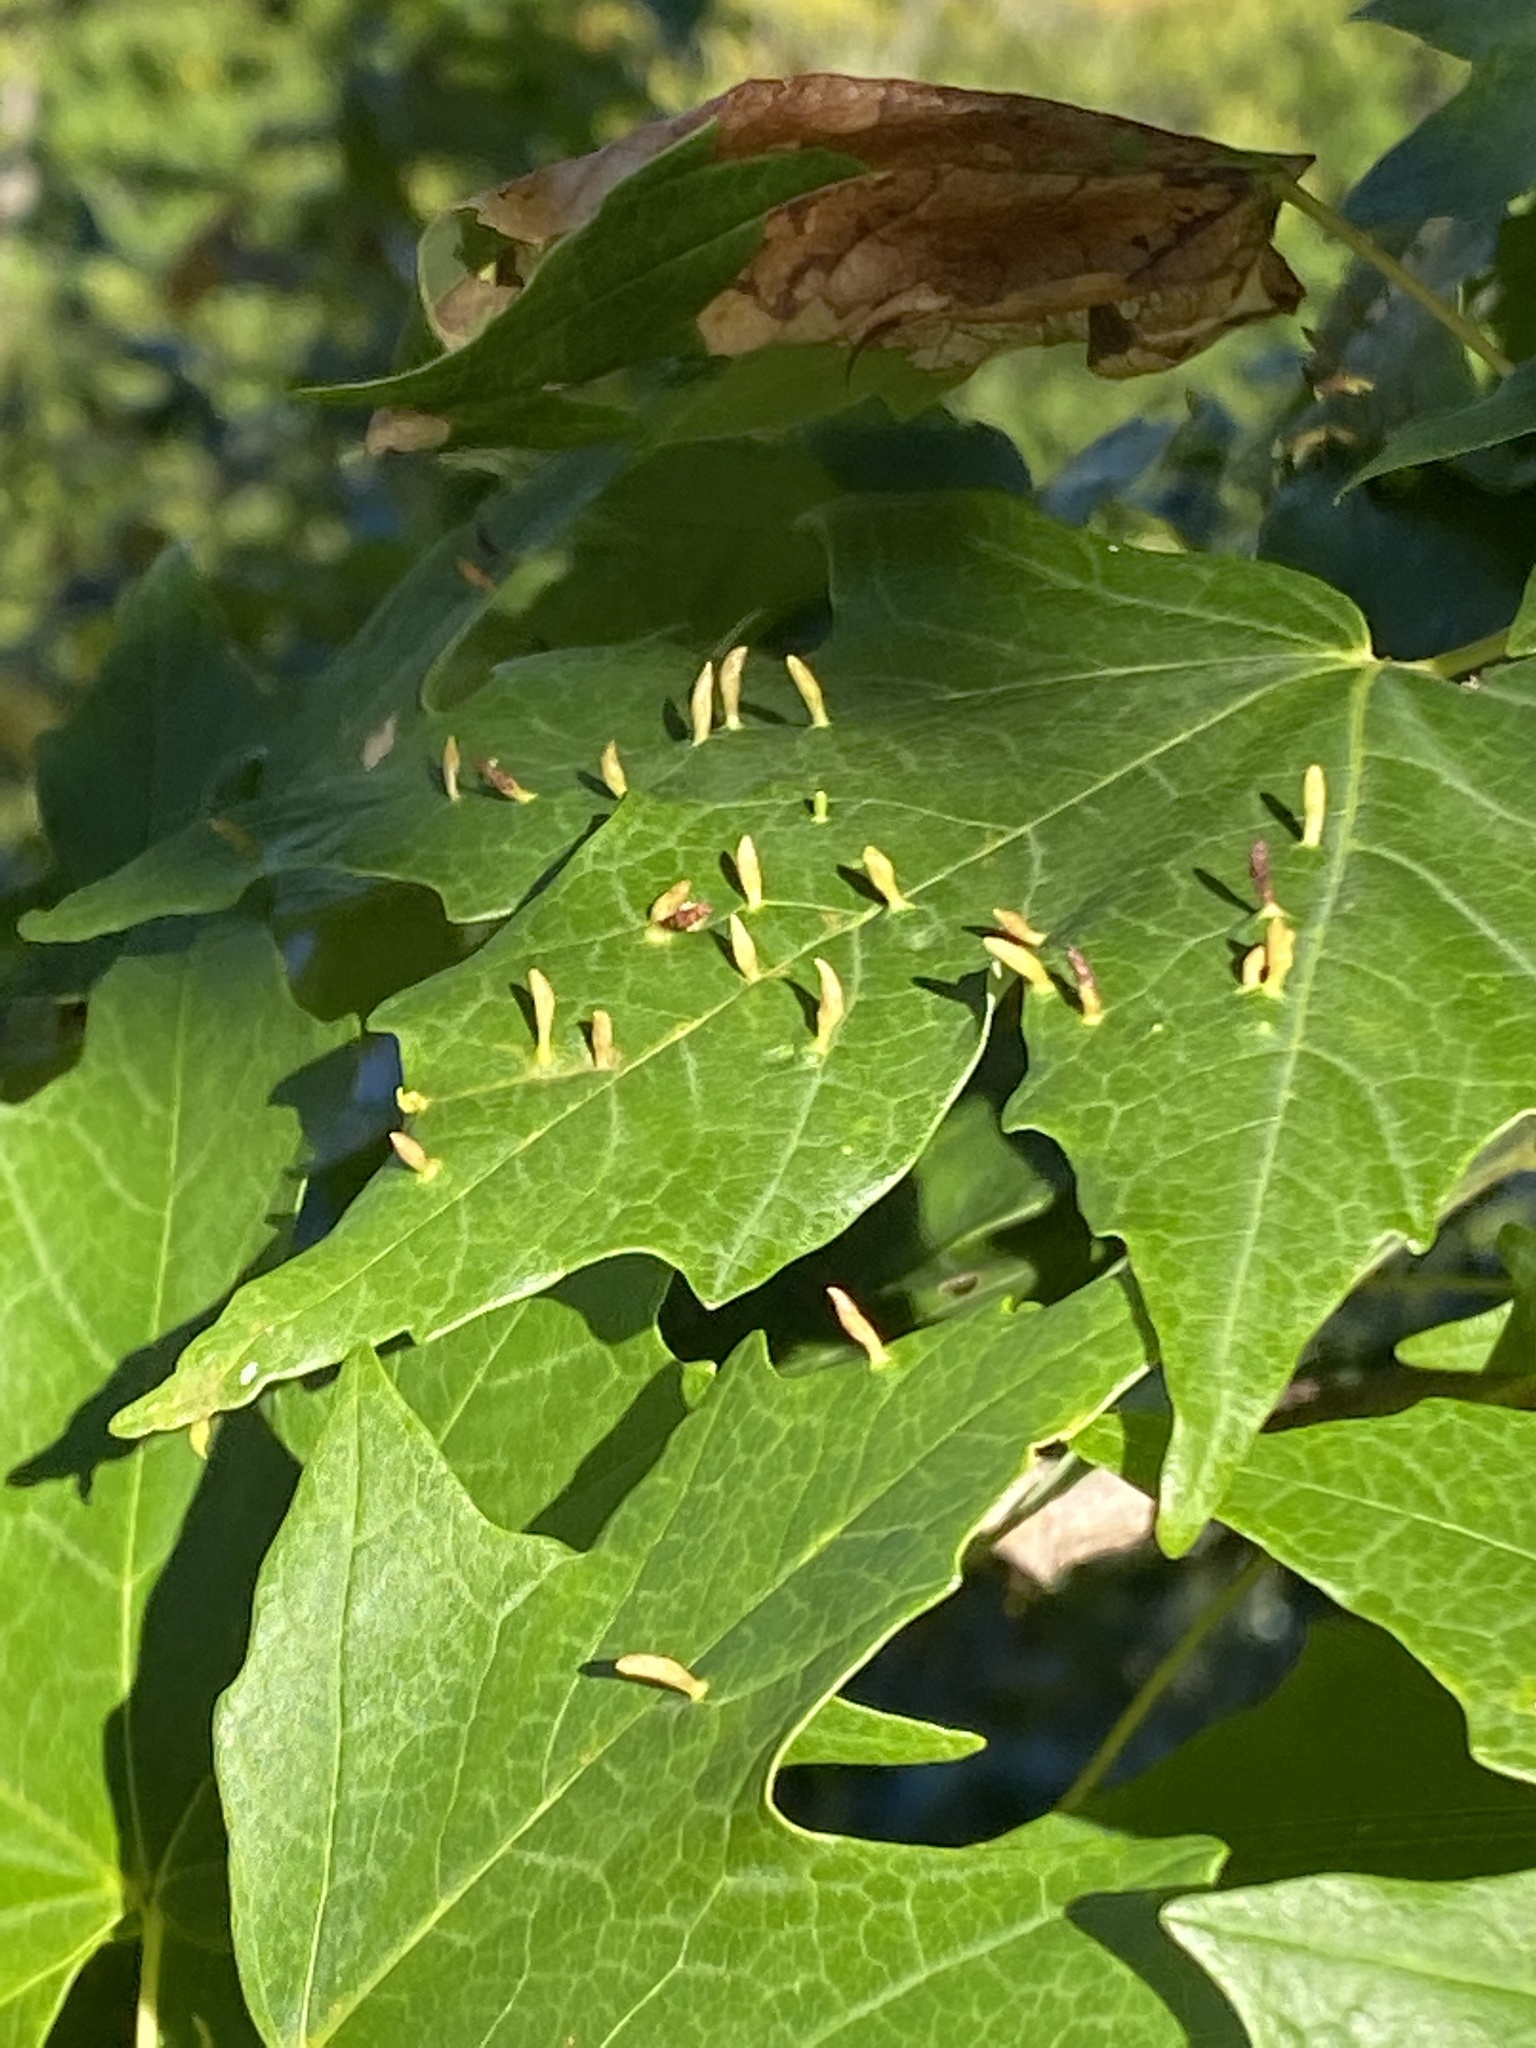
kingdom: Animalia
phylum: Arthropoda
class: Arachnida
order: Trombidiformes
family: Eriophyidae
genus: Vasates
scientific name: Vasates aceriscrumena
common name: Maple spindle gall mite
